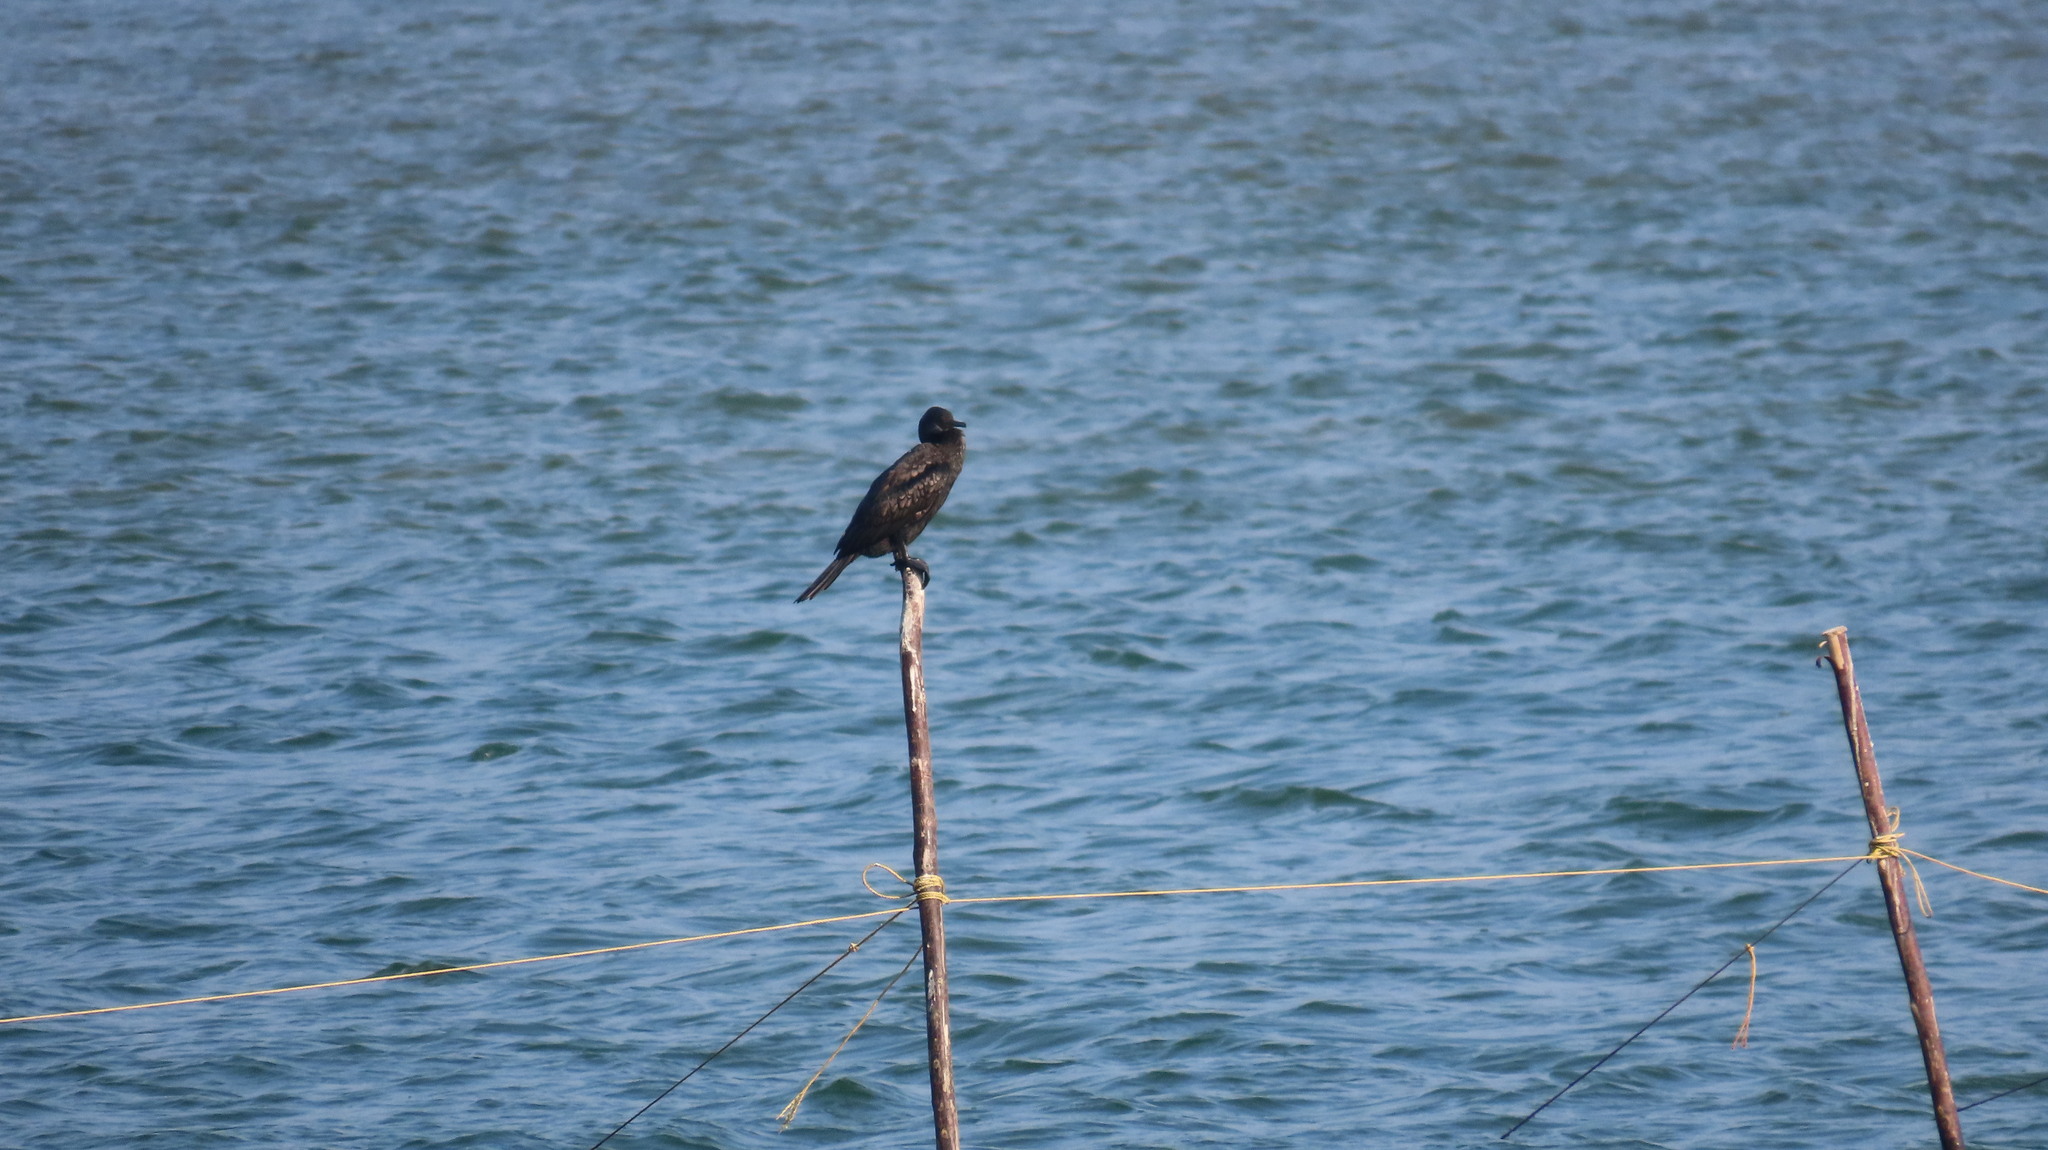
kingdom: Animalia
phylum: Chordata
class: Aves
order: Suliformes
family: Phalacrocoracidae
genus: Phalacrocorax
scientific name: Phalacrocorax fuscicollis
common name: Indian cormorant
